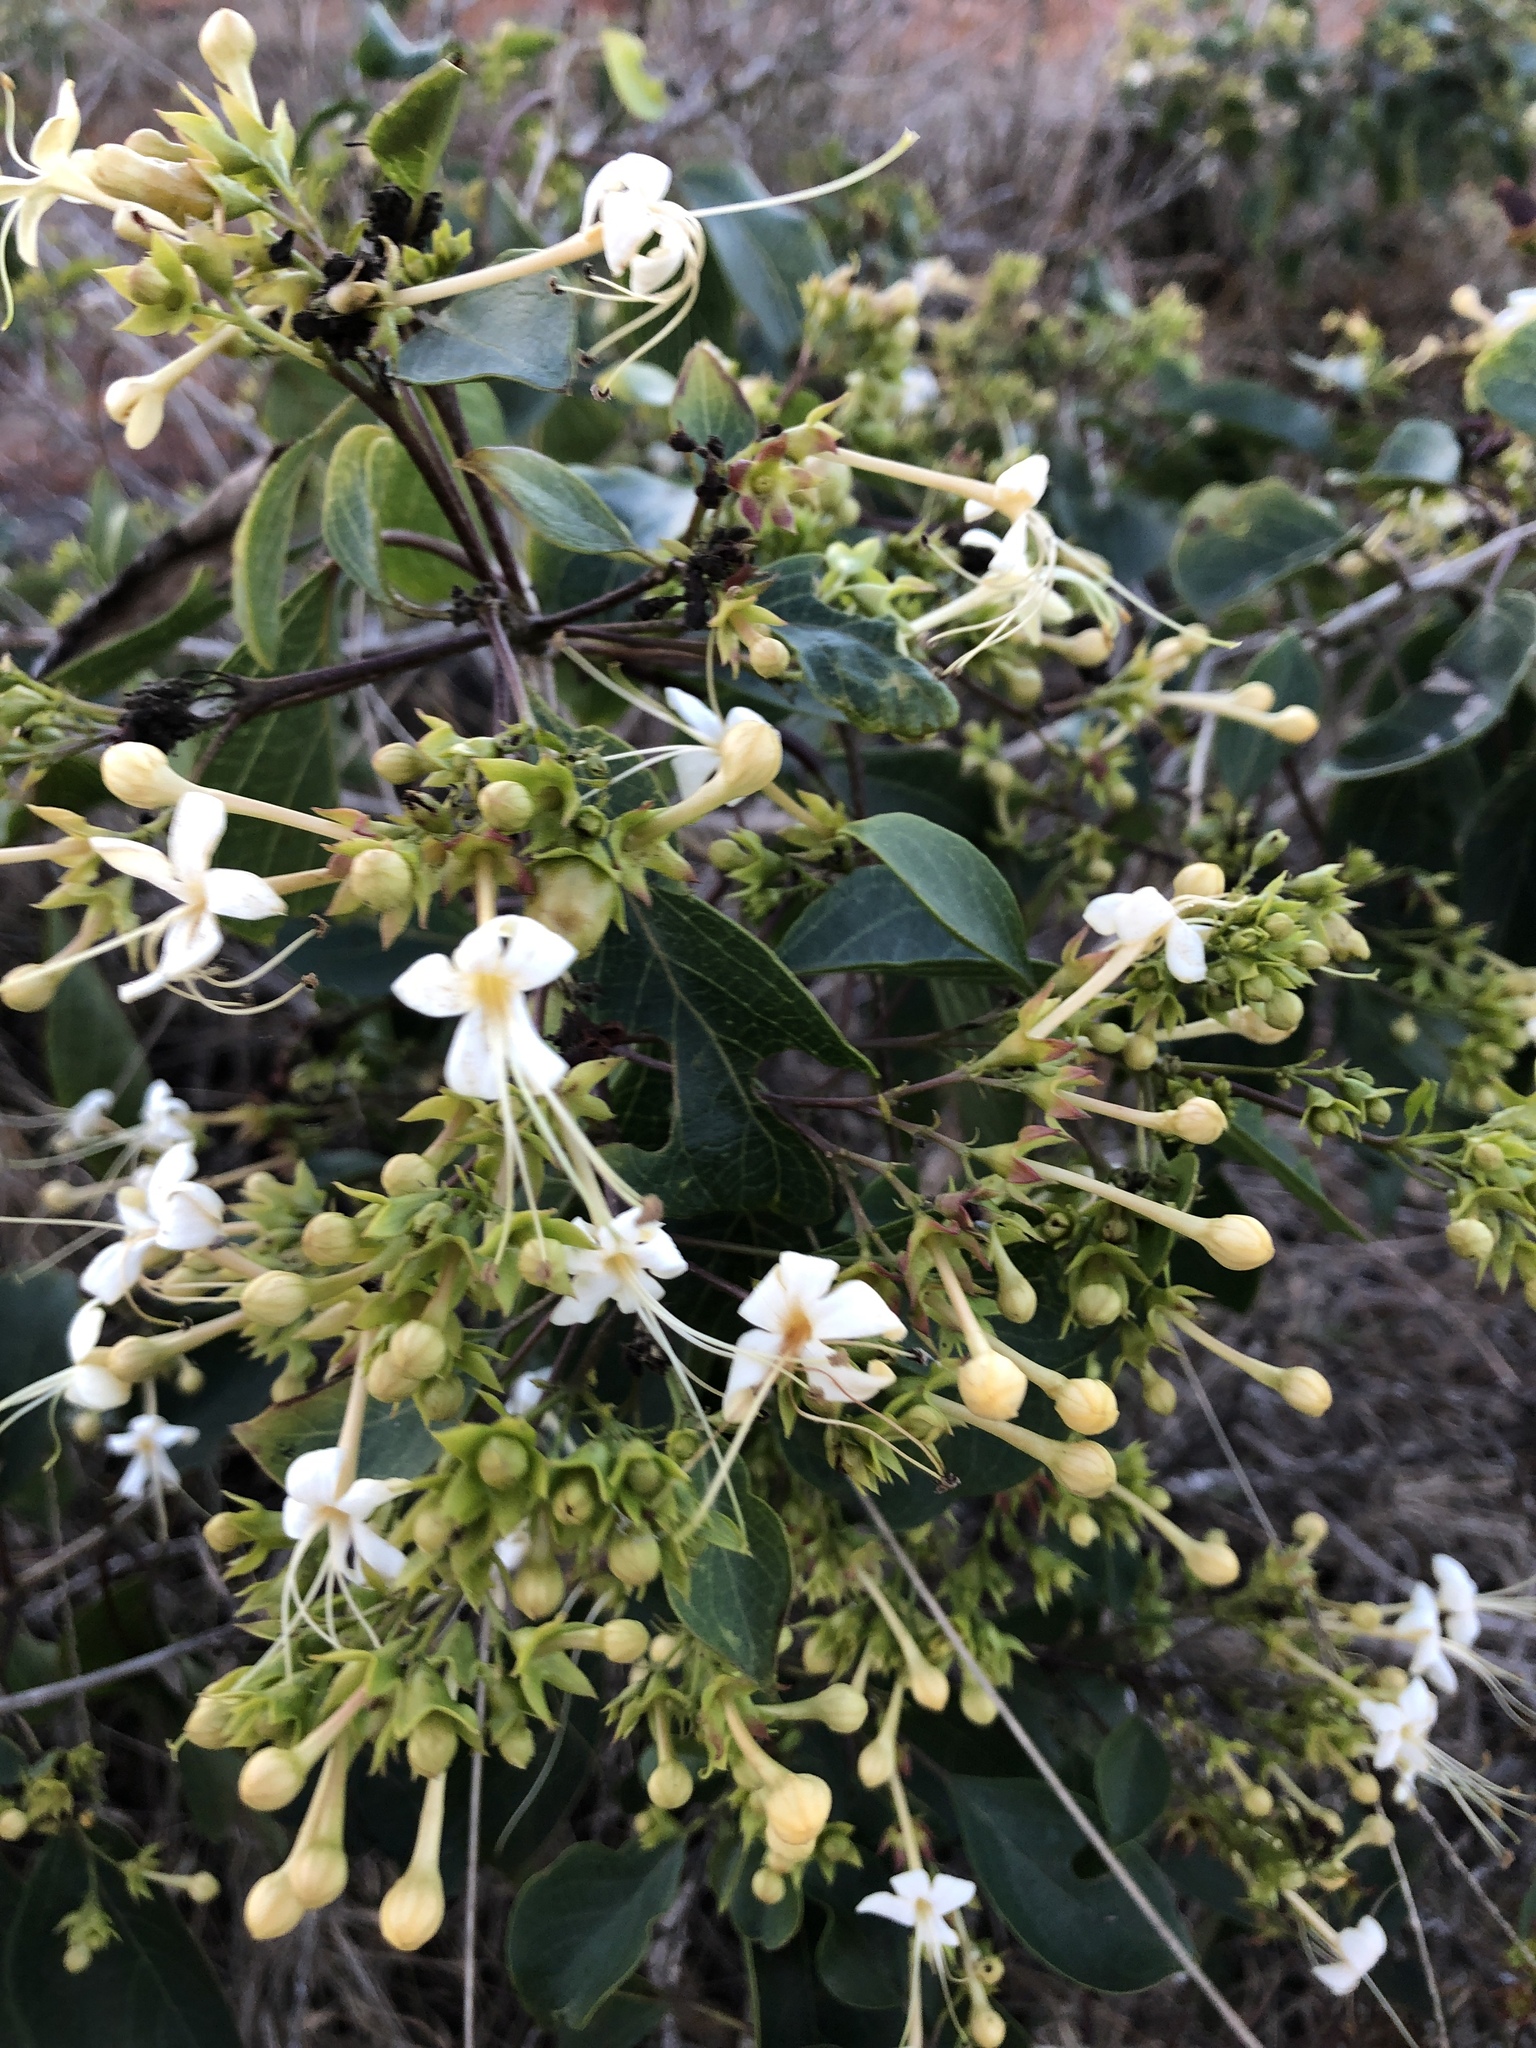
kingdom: Plantae
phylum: Tracheophyta
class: Magnoliopsida
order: Lamiales
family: Lamiaceae
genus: Clerodendrum
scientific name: Clerodendrum floribundum
